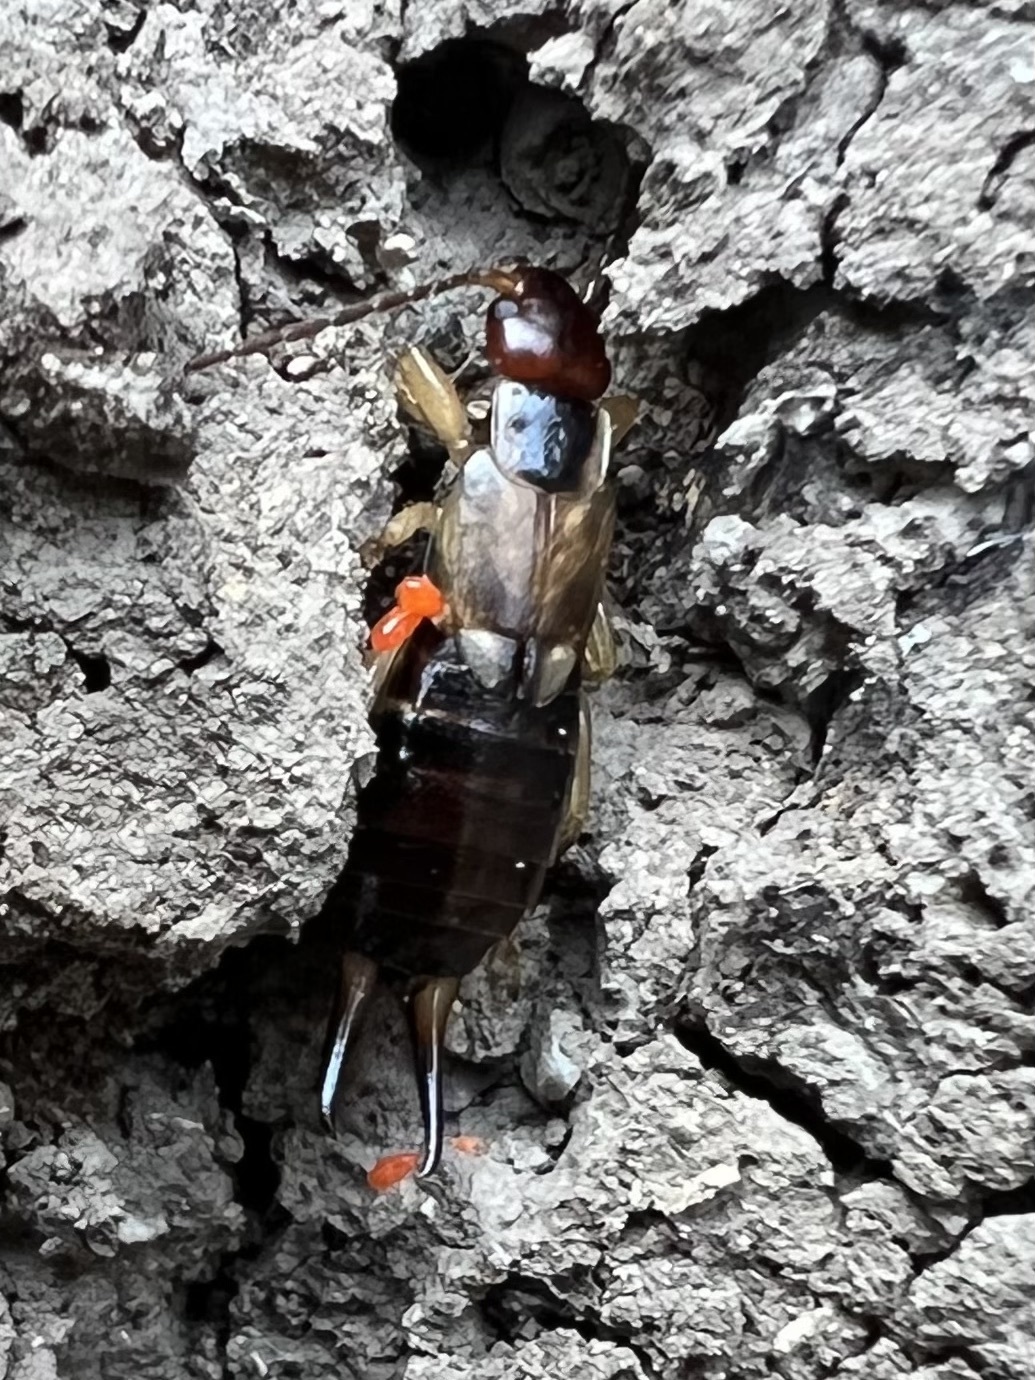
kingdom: Animalia
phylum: Arthropoda
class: Insecta
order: Dermaptera
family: Forficulidae
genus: Forficula
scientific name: Forficula
